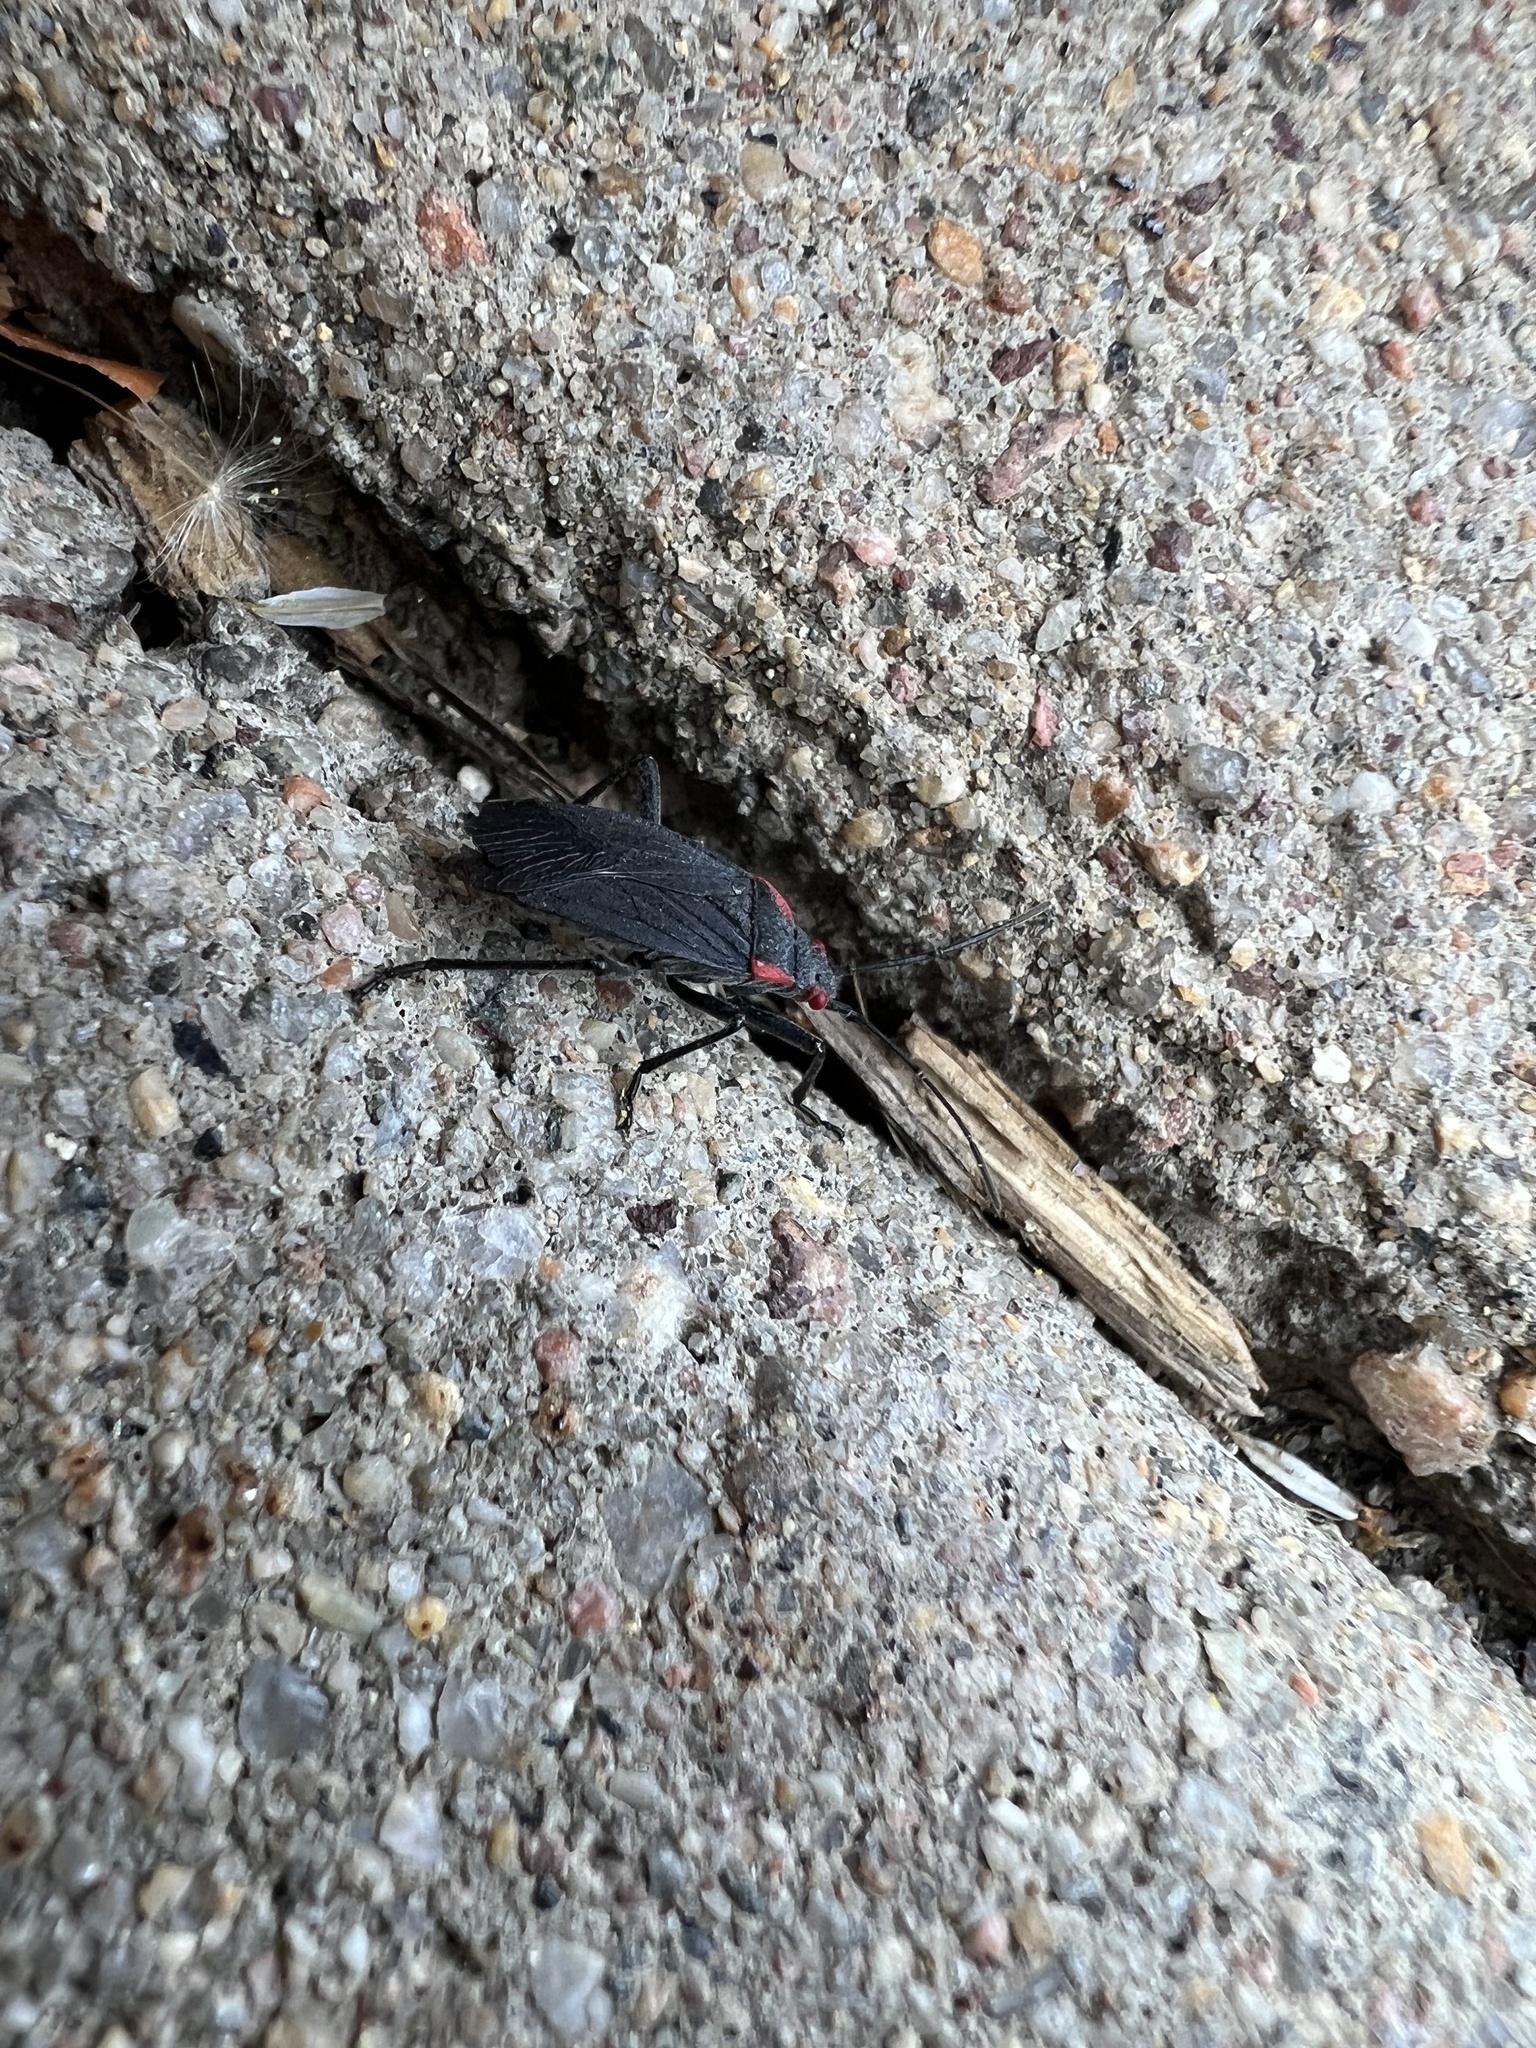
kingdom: Animalia
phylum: Arthropoda
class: Insecta
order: Hemiptera
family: Rhopalidae
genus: Jadera
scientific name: Jadera haematoloma
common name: Red-shouldered bug
